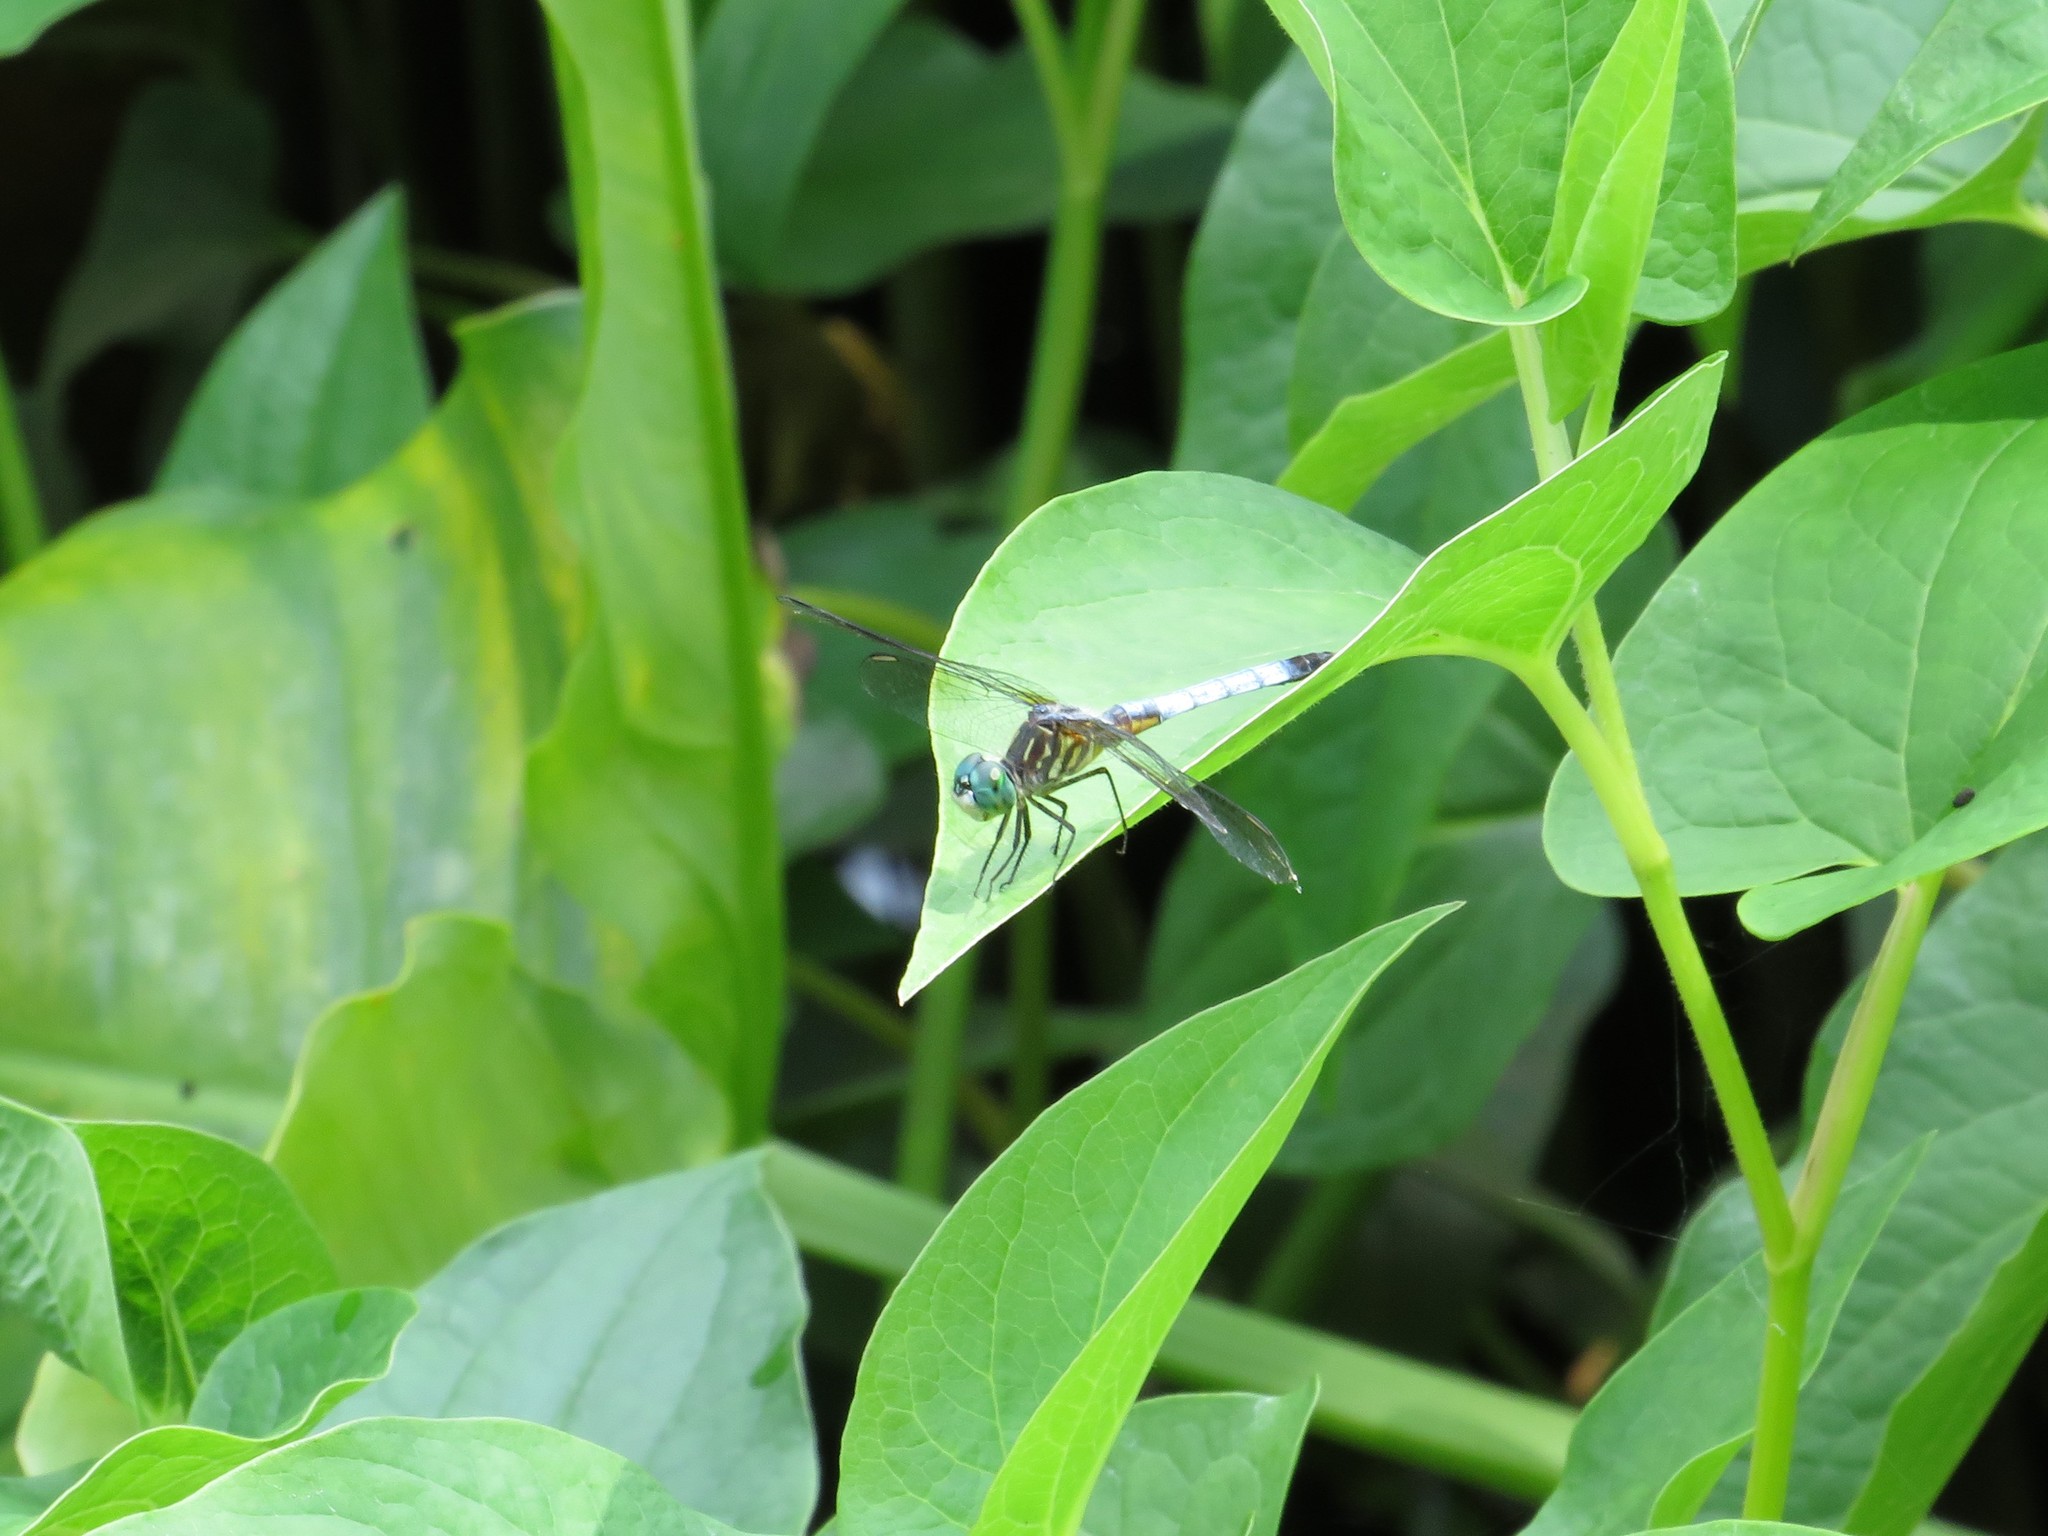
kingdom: Animalia
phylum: Arthropoda
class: Insecta
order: Odonata
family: Libellulidae
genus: Pachydiplax
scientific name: Pachydiplax longipennis
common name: Blue dasher
